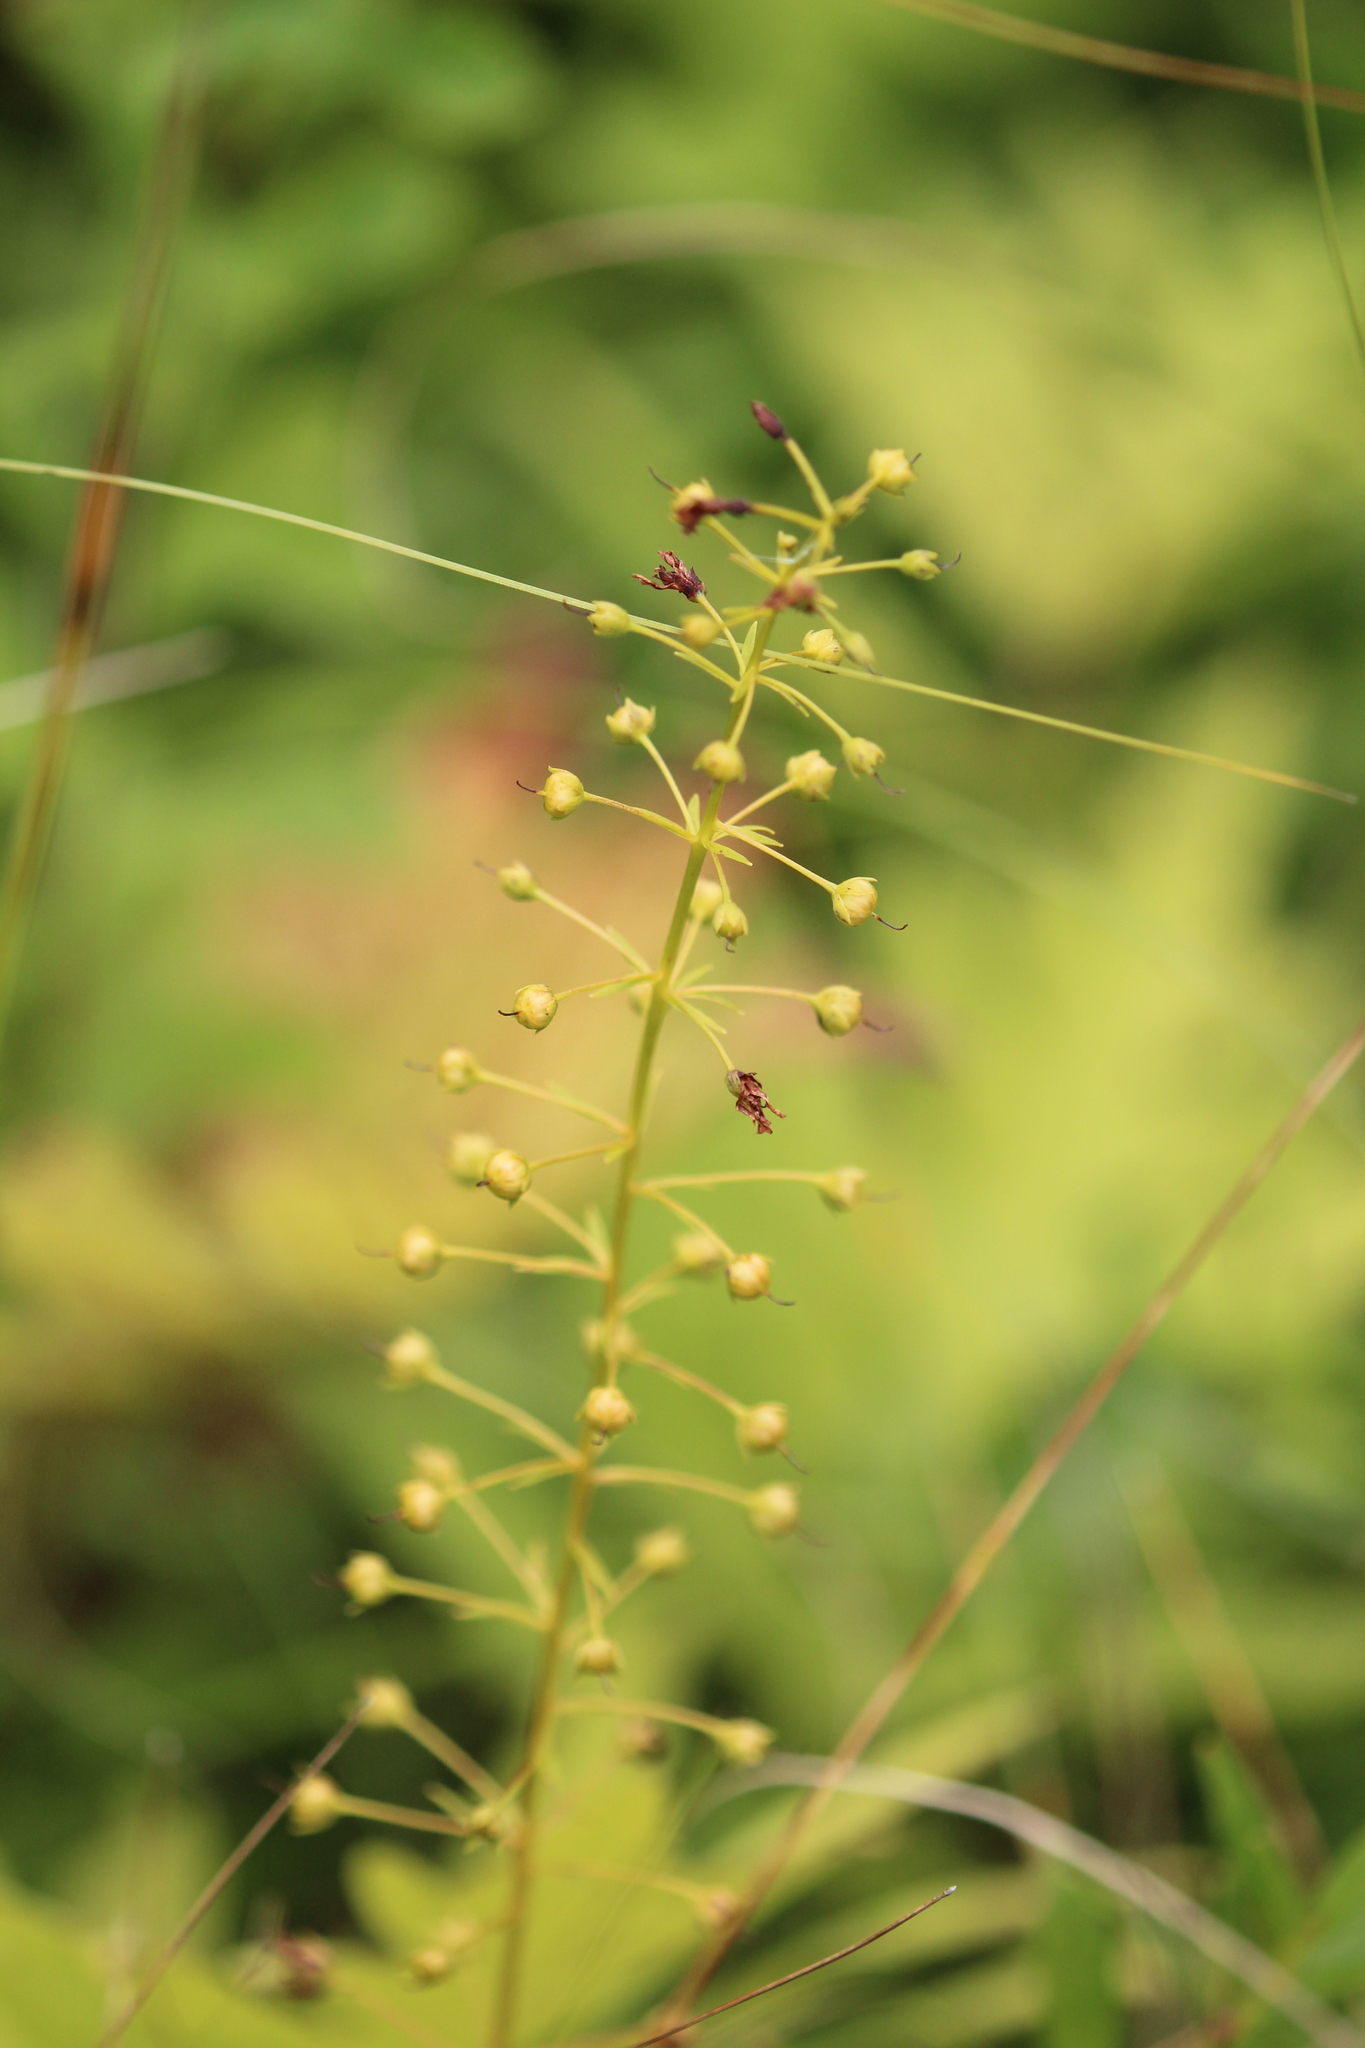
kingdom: Plantae
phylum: Tracheophyta
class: Magnoliopsida
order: Ericales
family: Primulaceae
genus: Lysimachia
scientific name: Lysimachia terrestris
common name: Lake loosestrife
